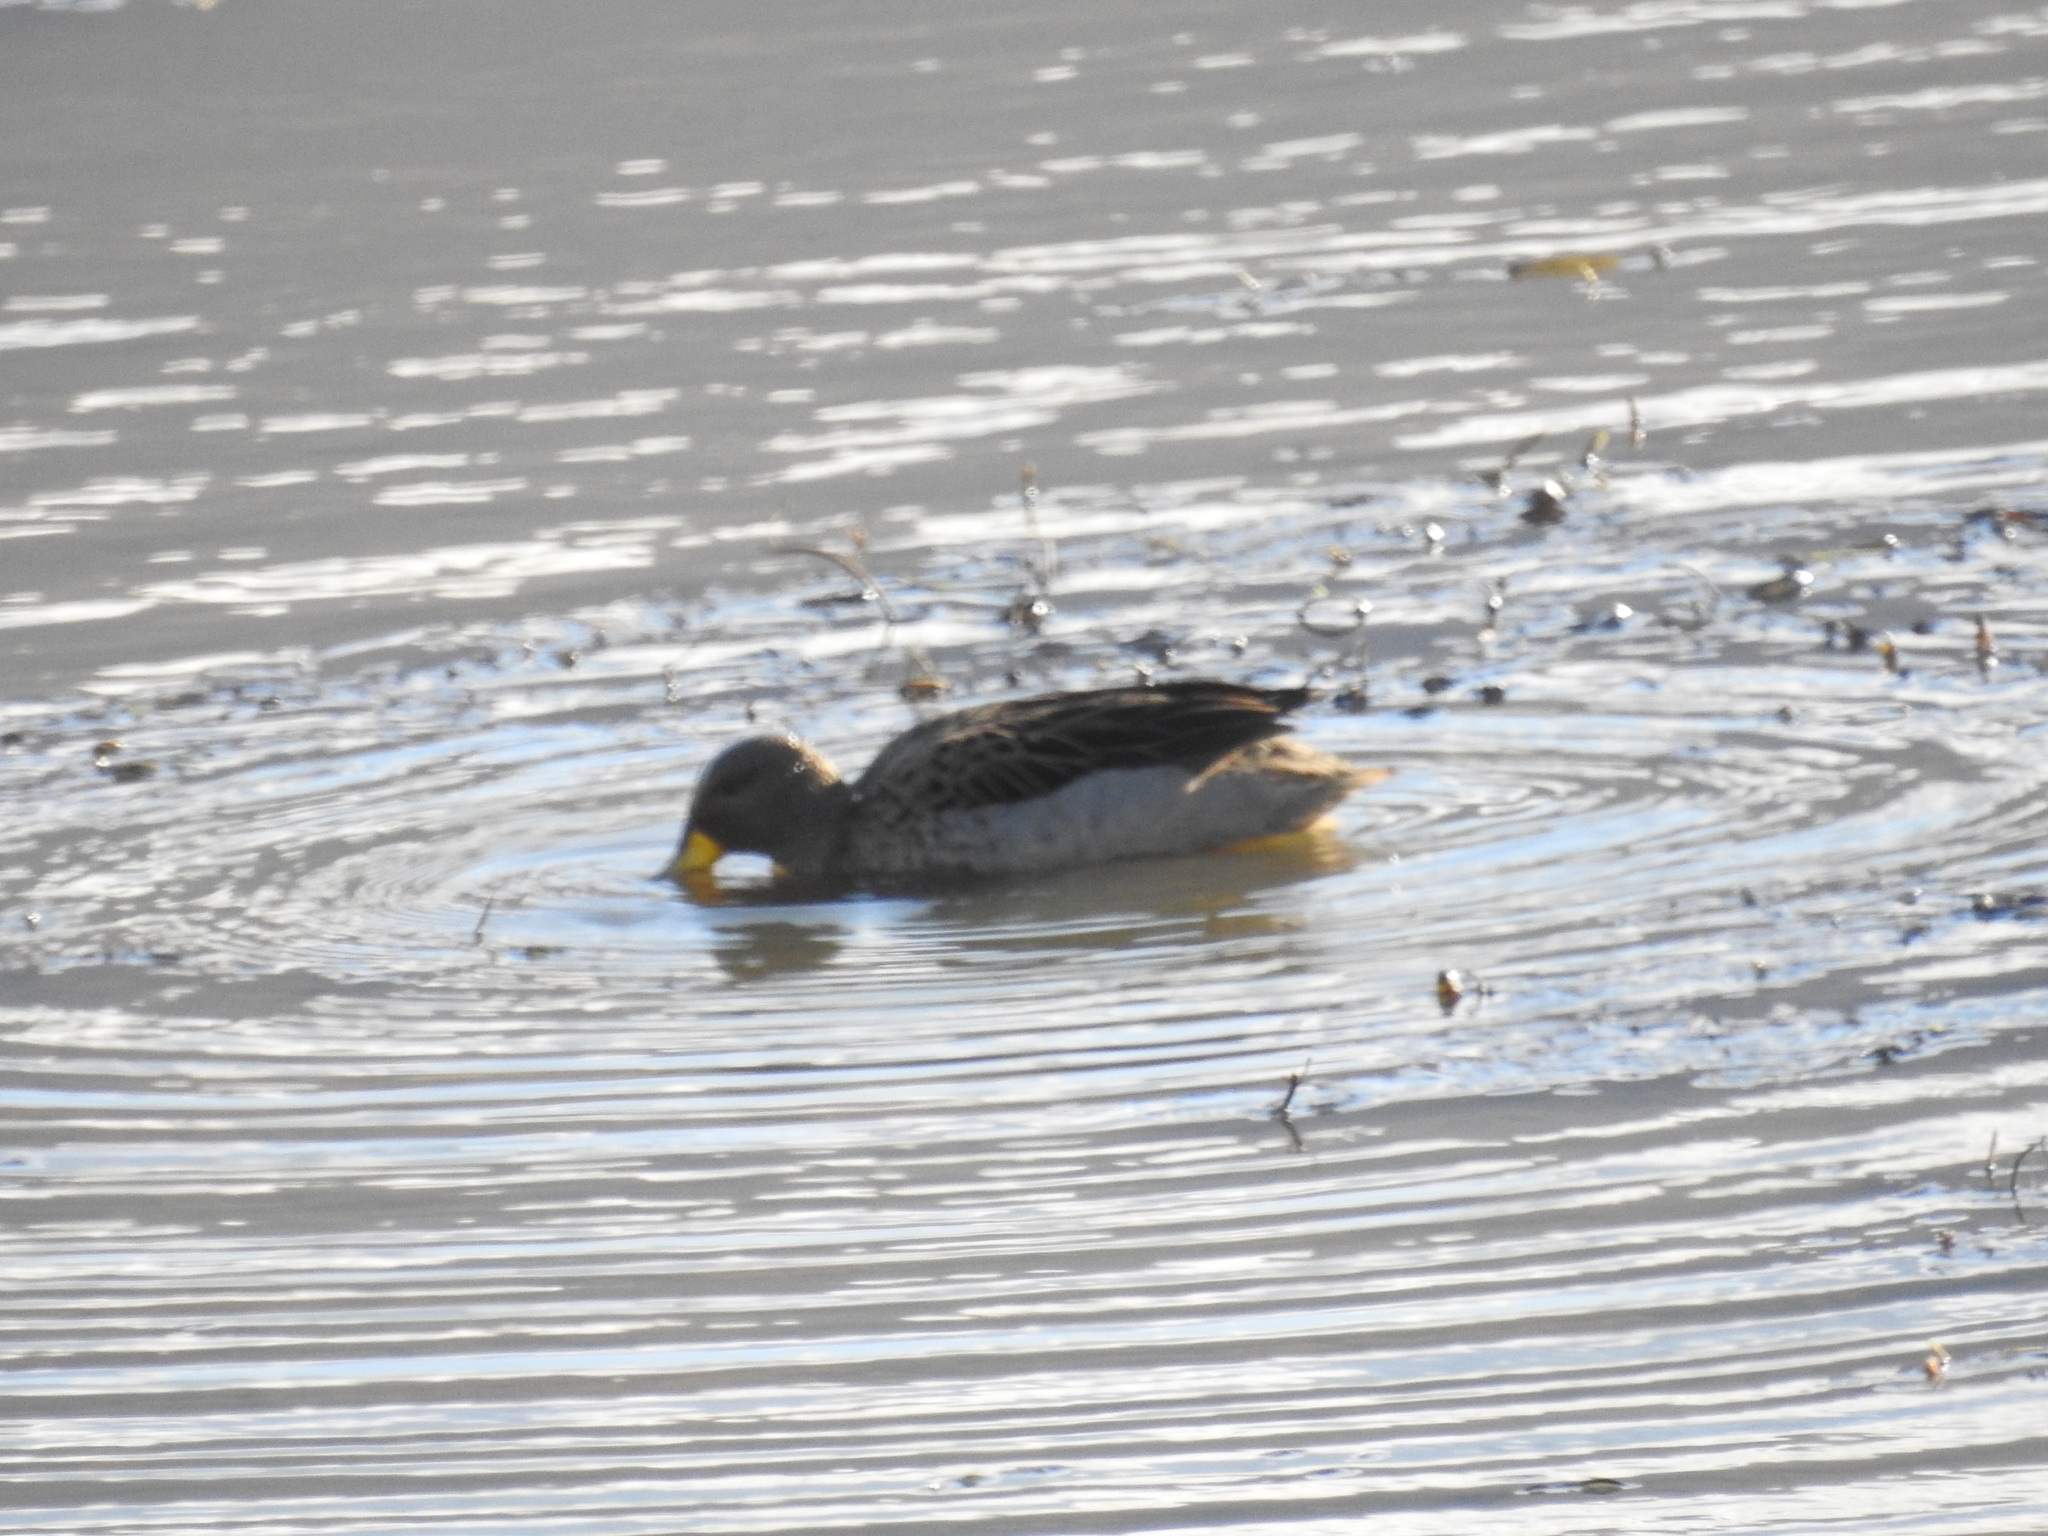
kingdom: Animalia
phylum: Chordata
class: Aves
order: Anseriformes
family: Anatidae
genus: Anas
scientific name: Anas flavirostris
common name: Yellow-billed teal
